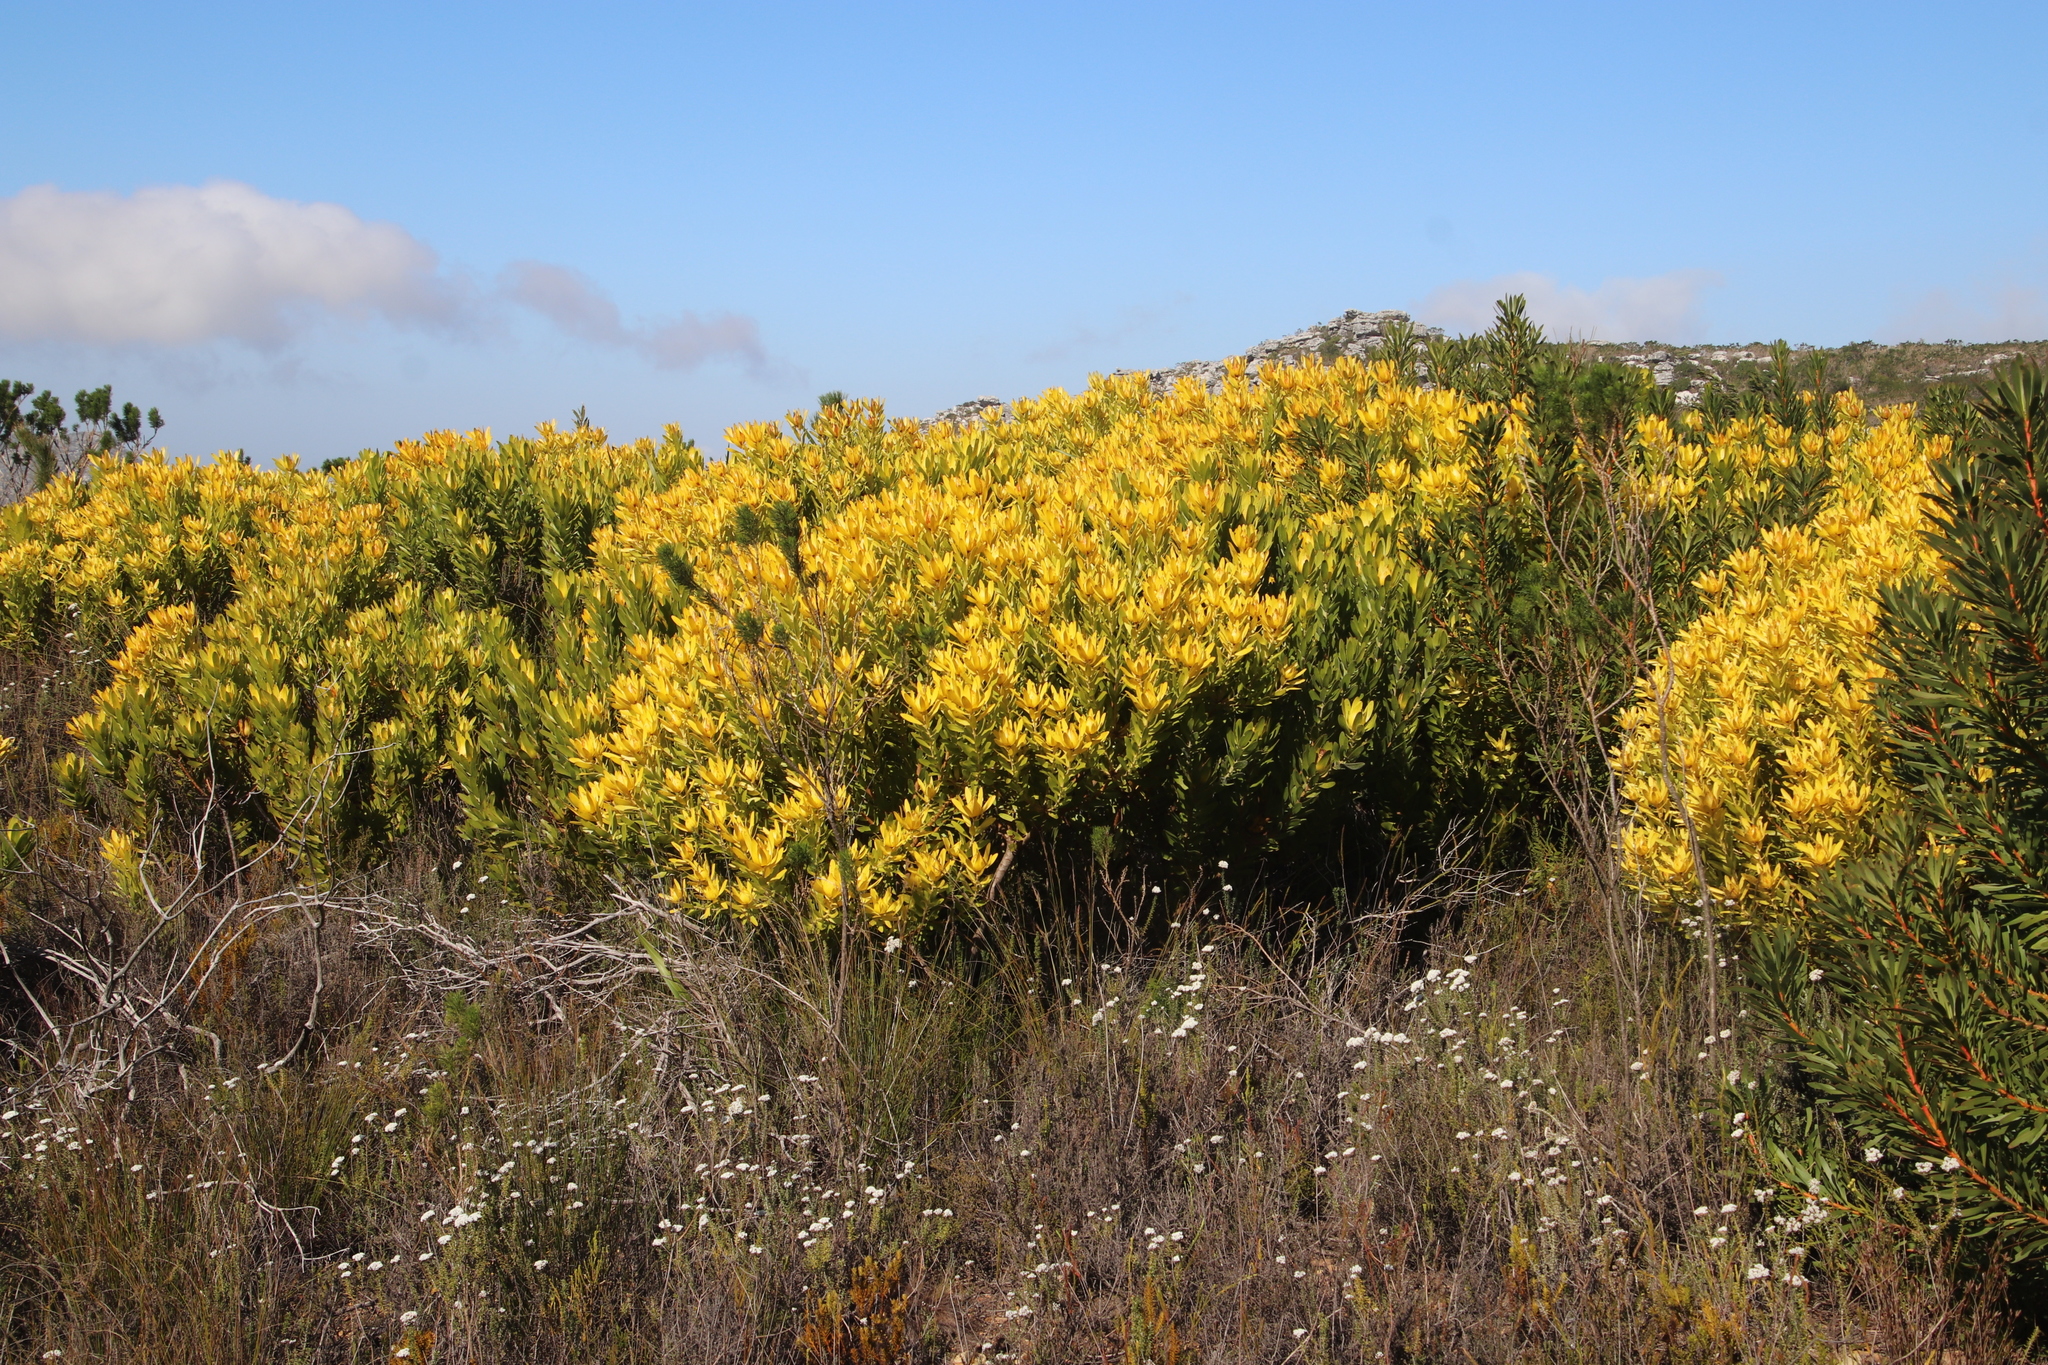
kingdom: Plantae
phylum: Tracheophyta
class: Magnoliopsida
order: Proteales
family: Proteaceae
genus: Leucadendron
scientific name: Leucadendron laureolum
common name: Golden sunshinebush
